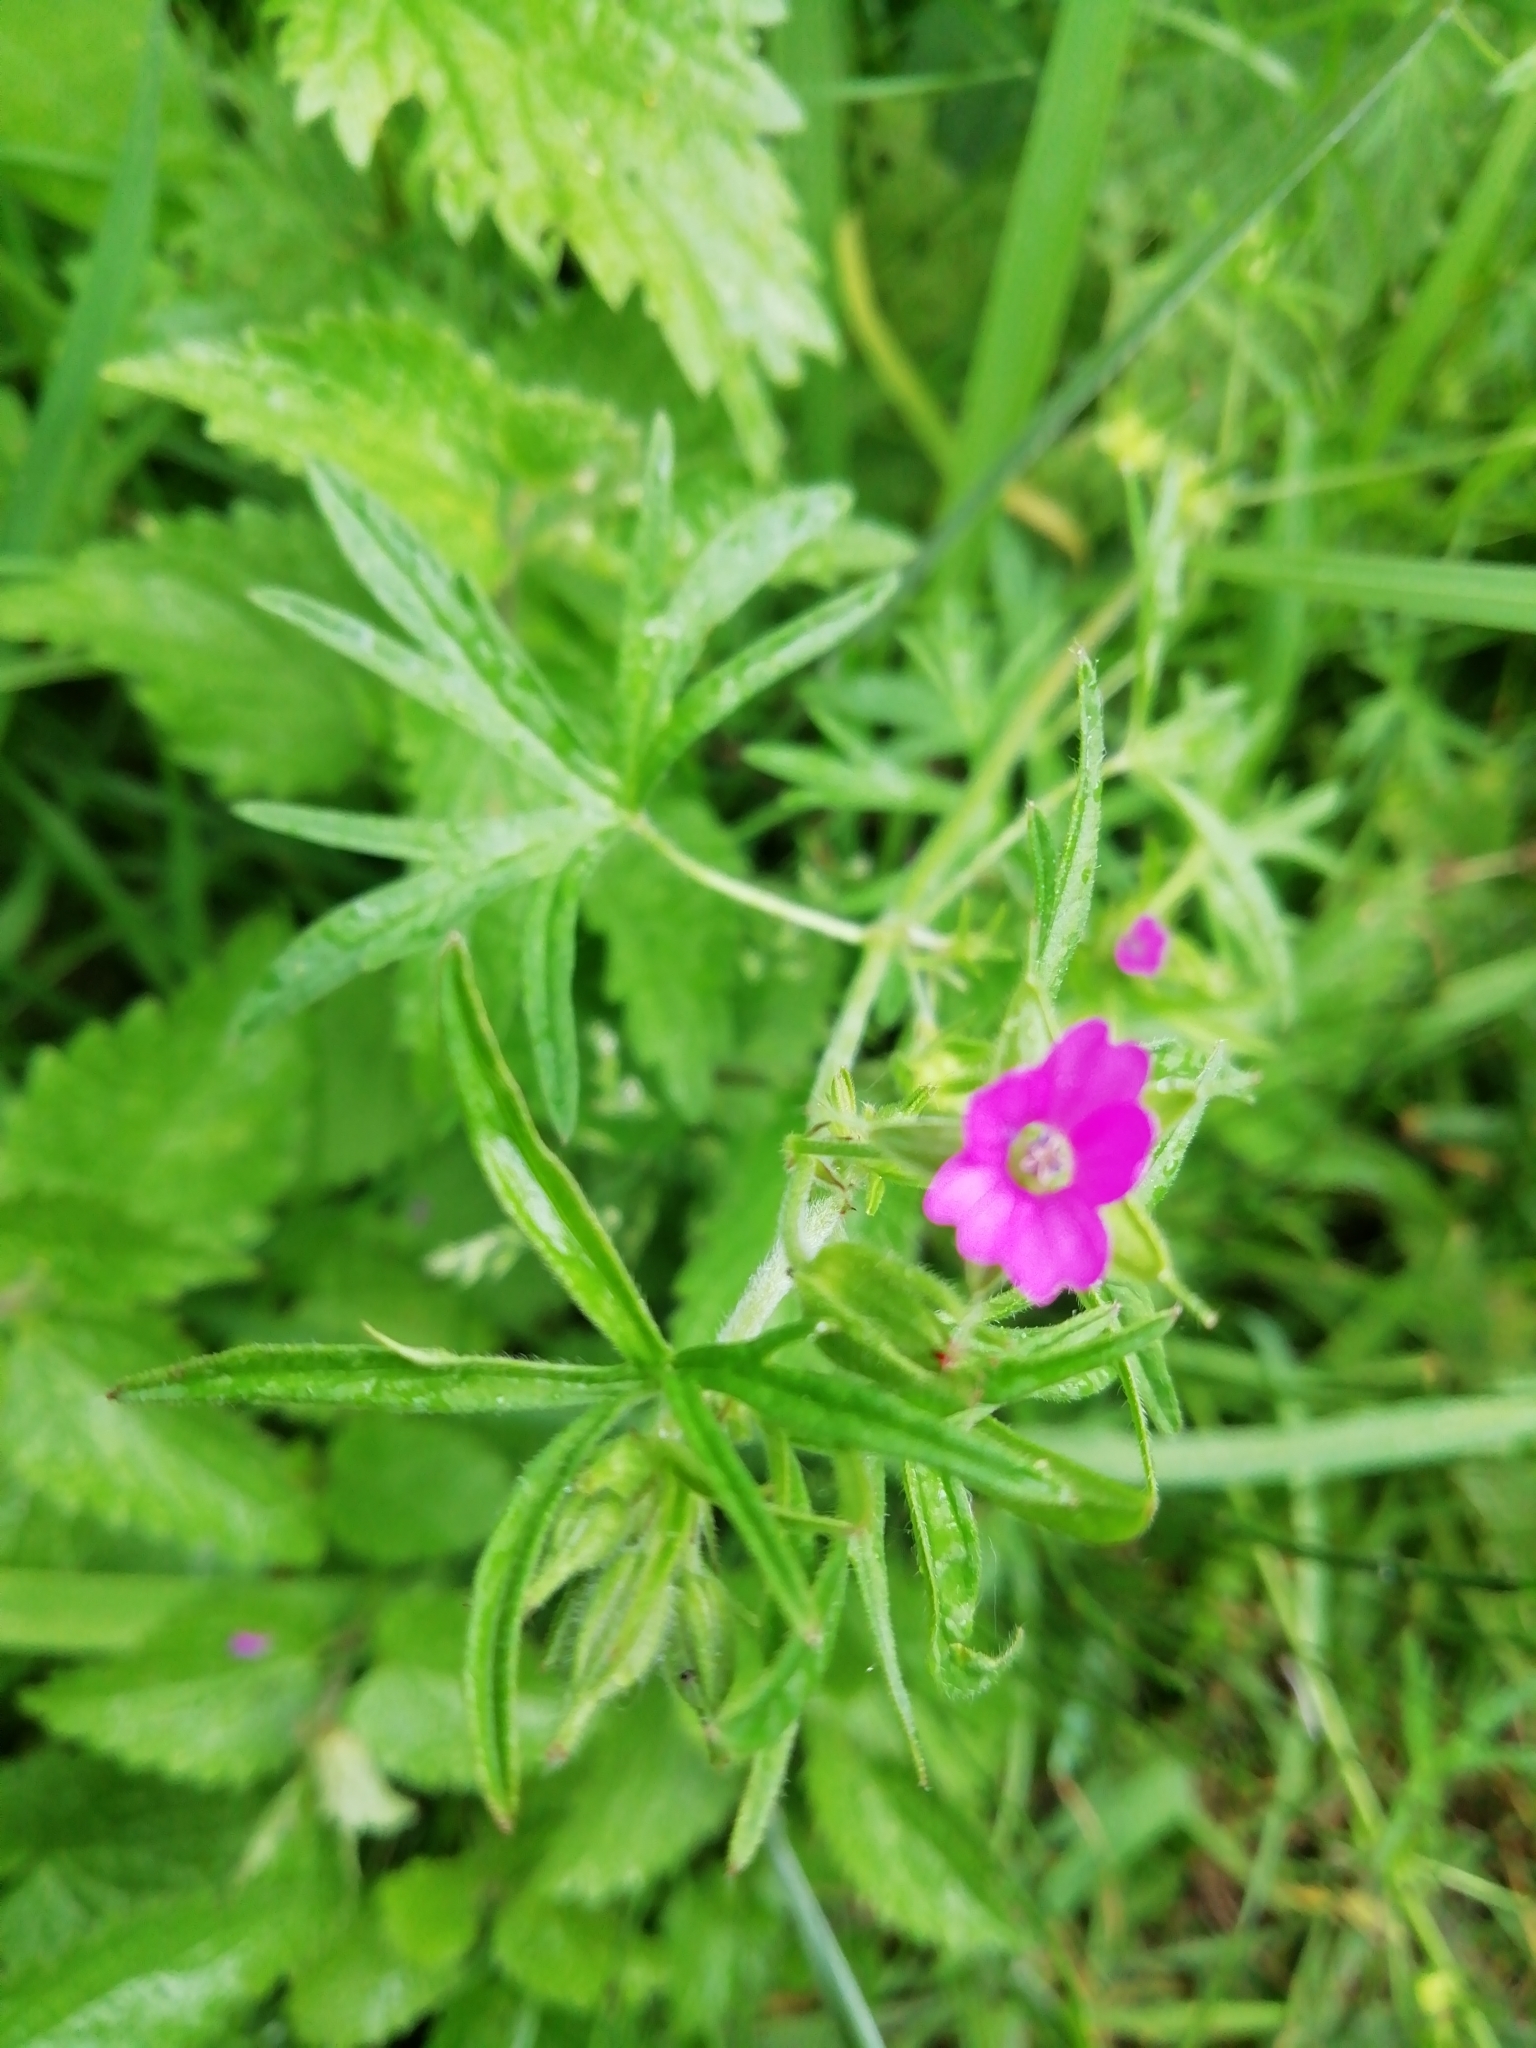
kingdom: Plantae
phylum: Tracheophyta
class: Magnoliopsida
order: Geraniales
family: Geraniaceae
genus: Geranium
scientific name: Geranium dissectum
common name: Cut-leaved crane's-bill
